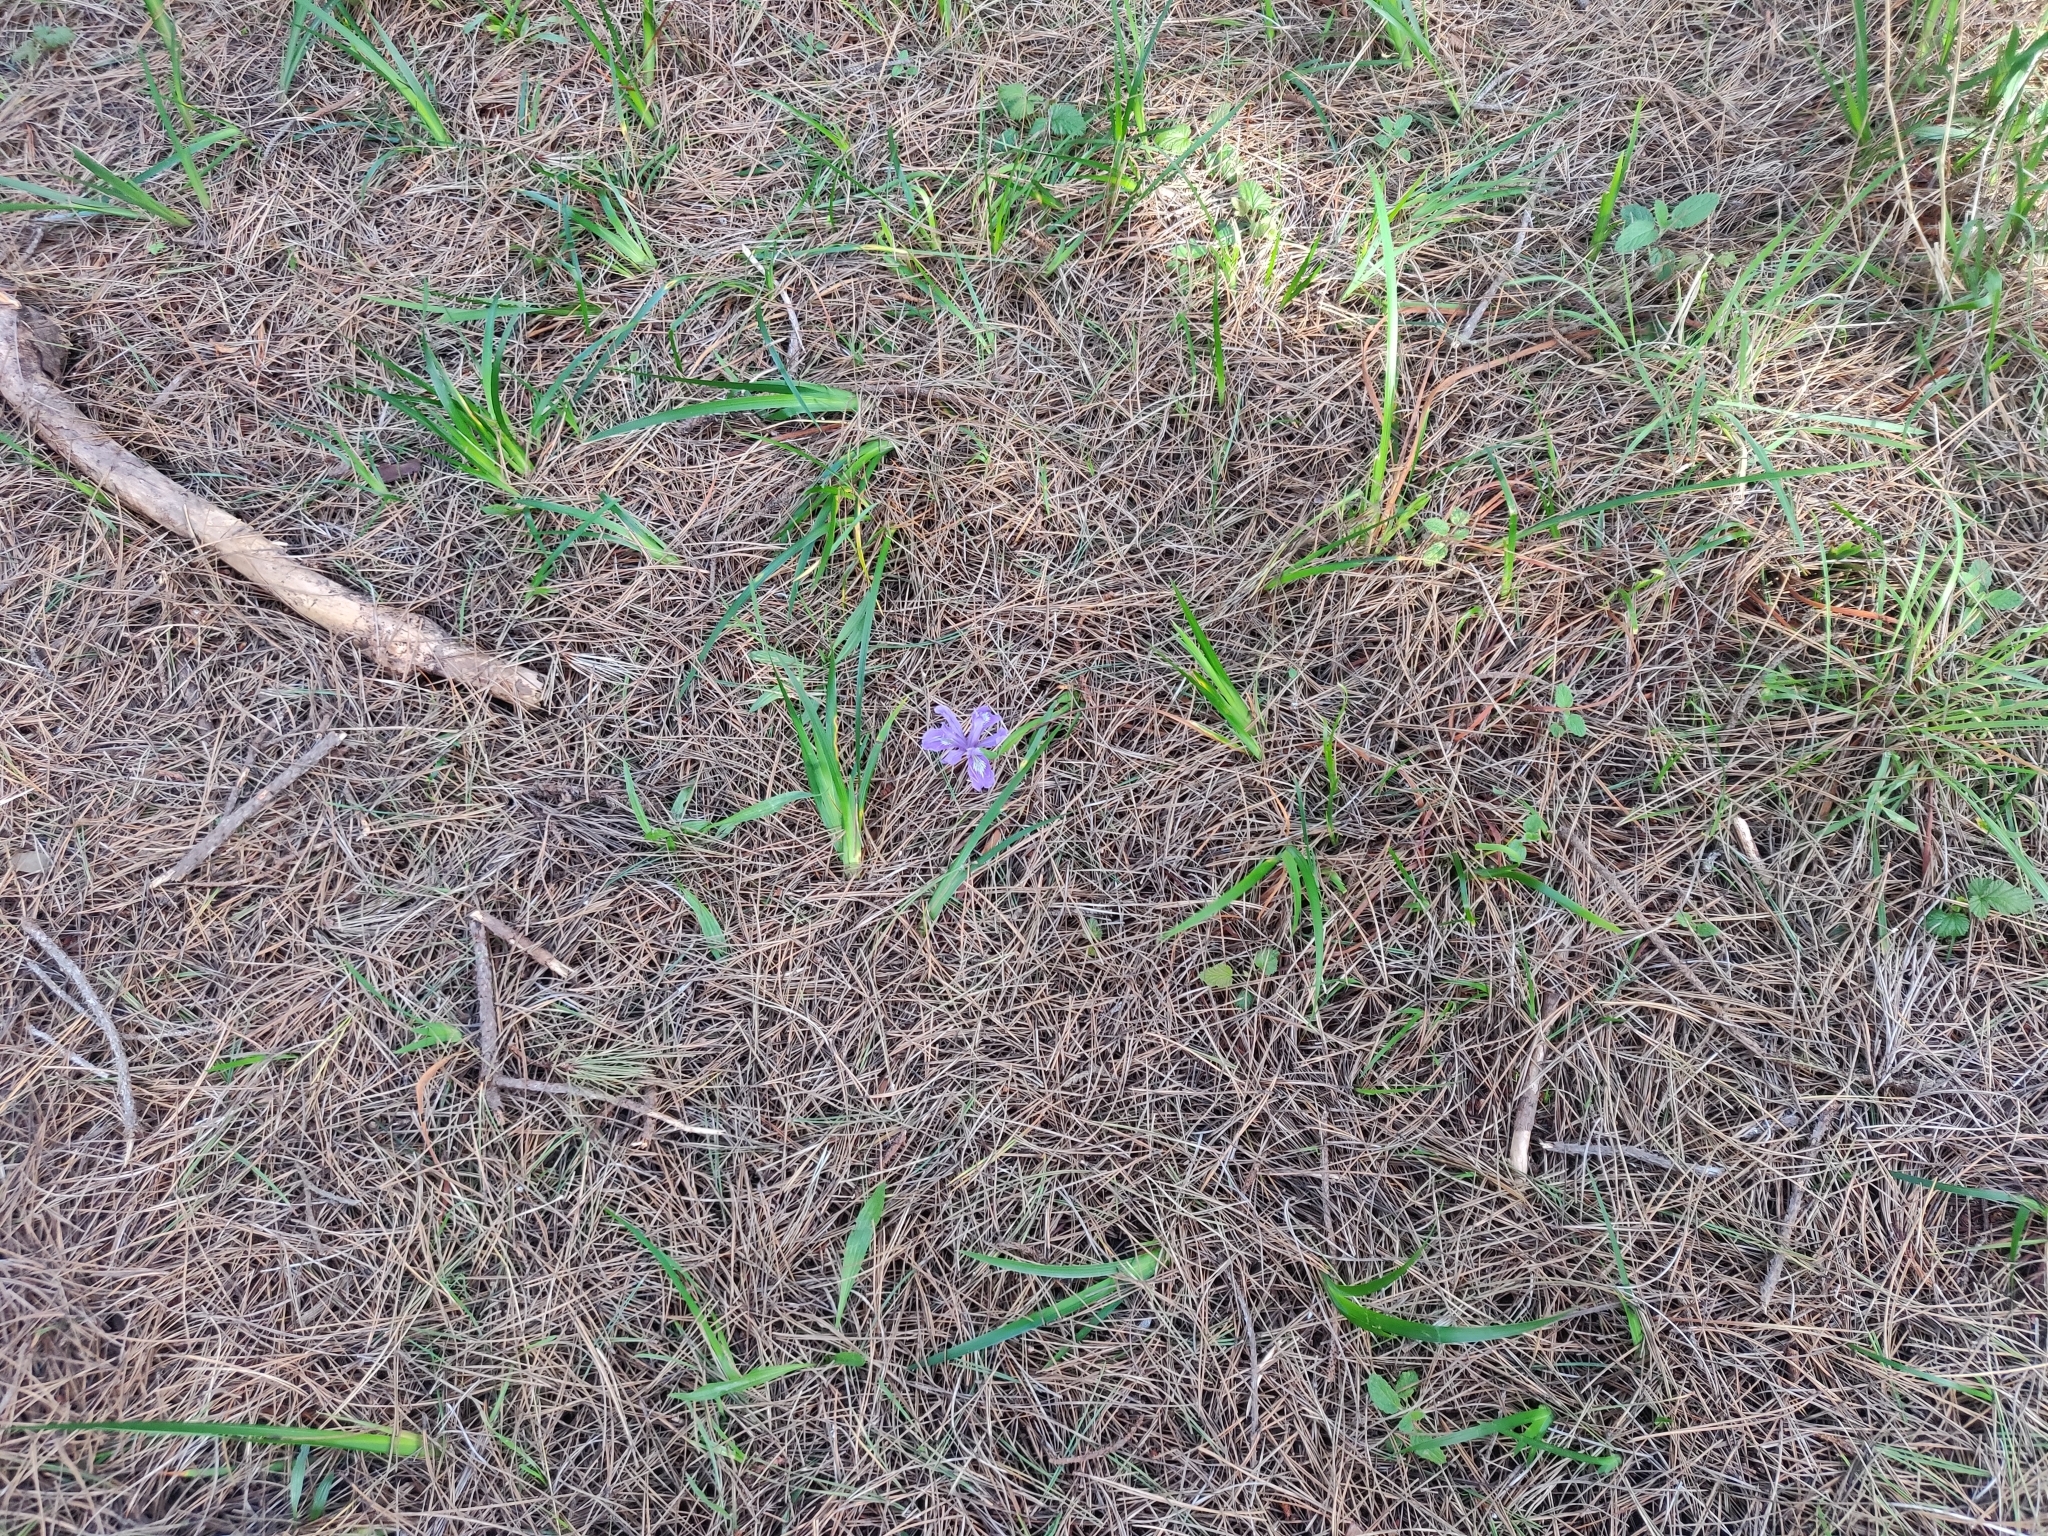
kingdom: Plantae
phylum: Tracheophyta
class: Liliopsida
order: Asparagales
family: Iridaceae
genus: Iris
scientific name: Iris douglasiana
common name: Marin iris
